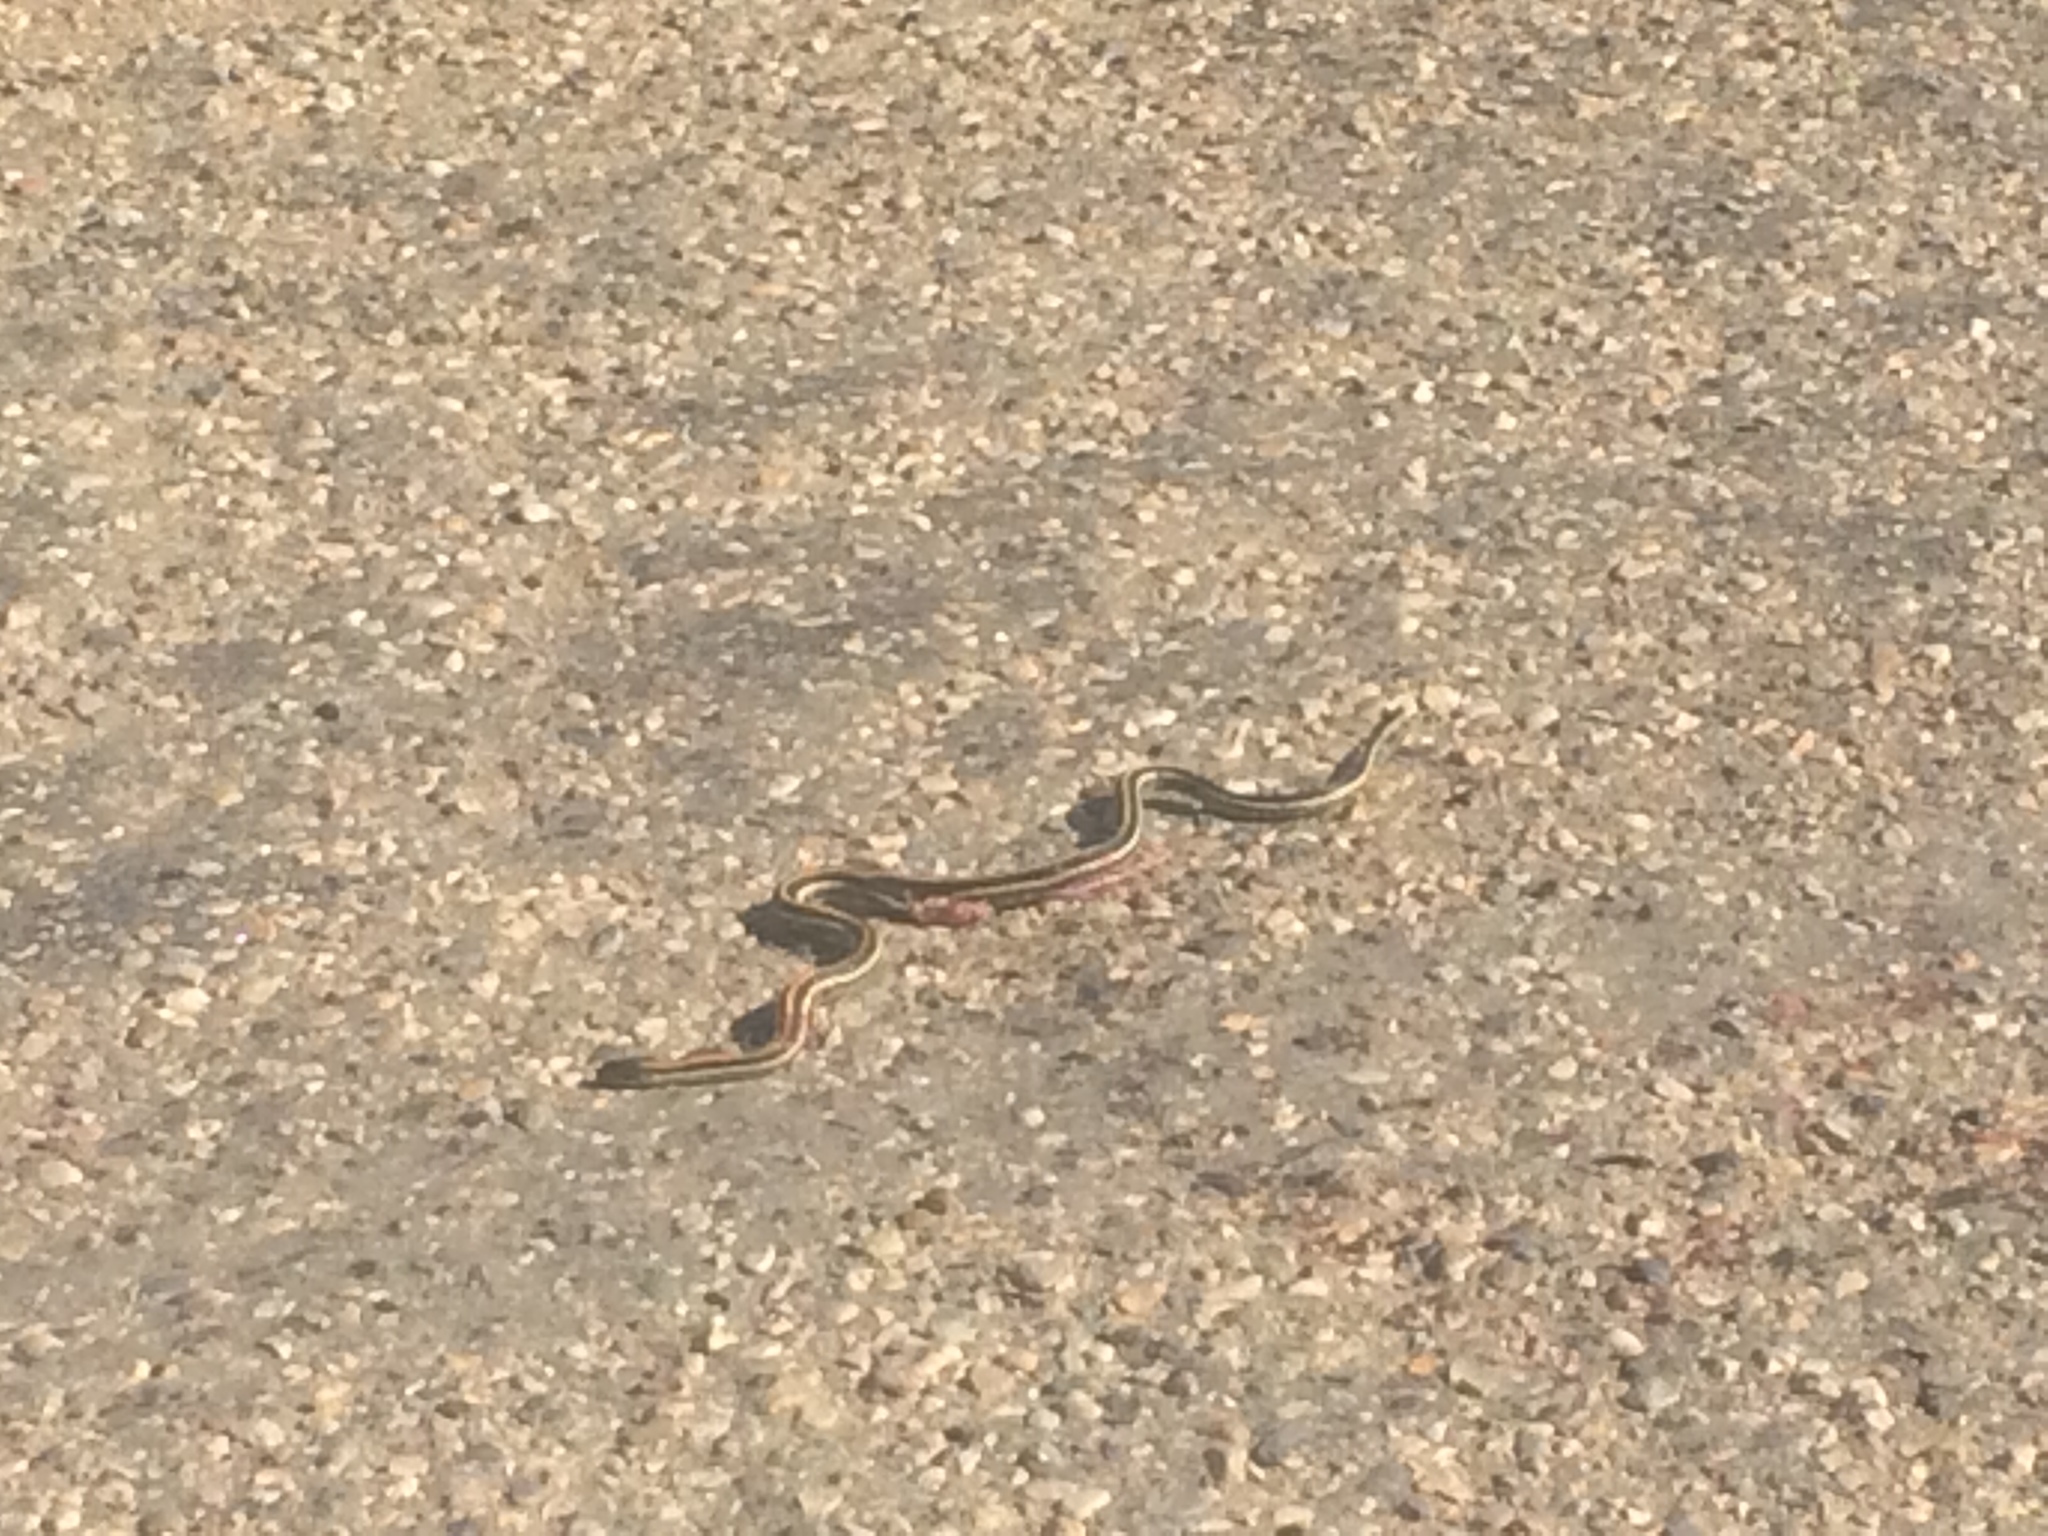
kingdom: Animalia
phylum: Chordata
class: Squamata
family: Colubridae
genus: Thamnophis
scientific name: Thamnophis radix
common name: Plains garter snake
